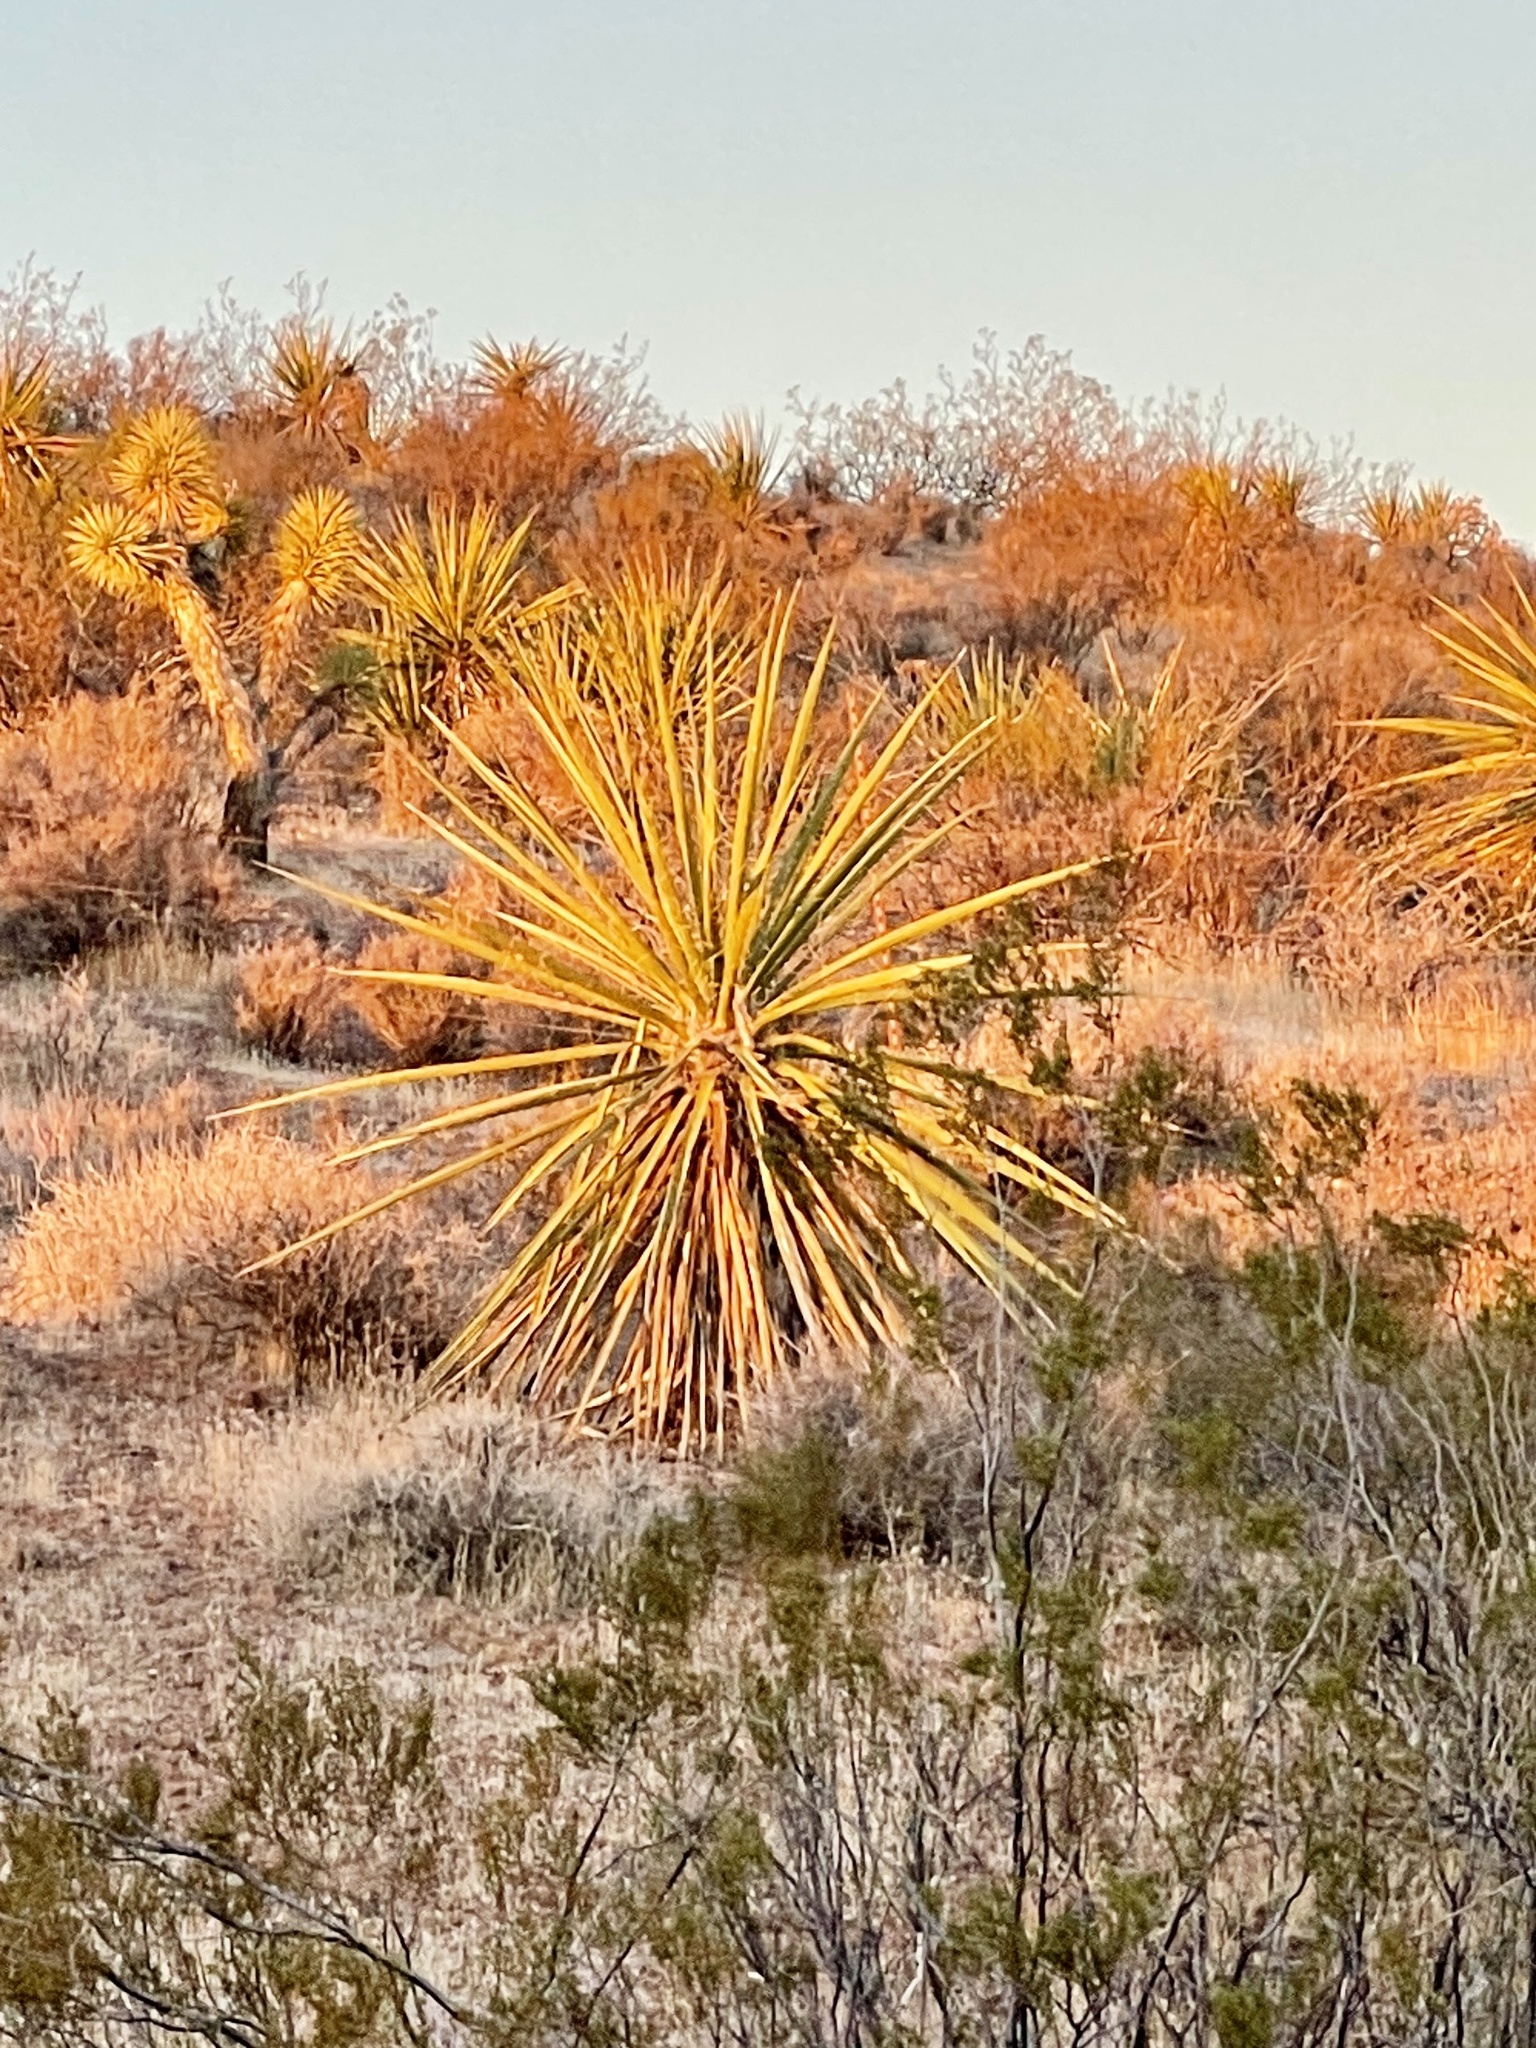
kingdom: Plantae
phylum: Tracheophyta
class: Liliopsida
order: Asparagales
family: Asparagaceae
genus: Yucca
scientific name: Yucca schidigera
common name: Mojave yucca
